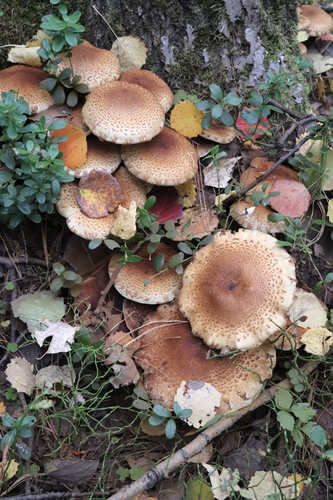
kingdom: Fungi
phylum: Basidiomycota
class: Agaricomycetes
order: Agaricales
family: Strophariaceae
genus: Pholiota
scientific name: Pholiota squarrosa
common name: Shaggy pholiota
